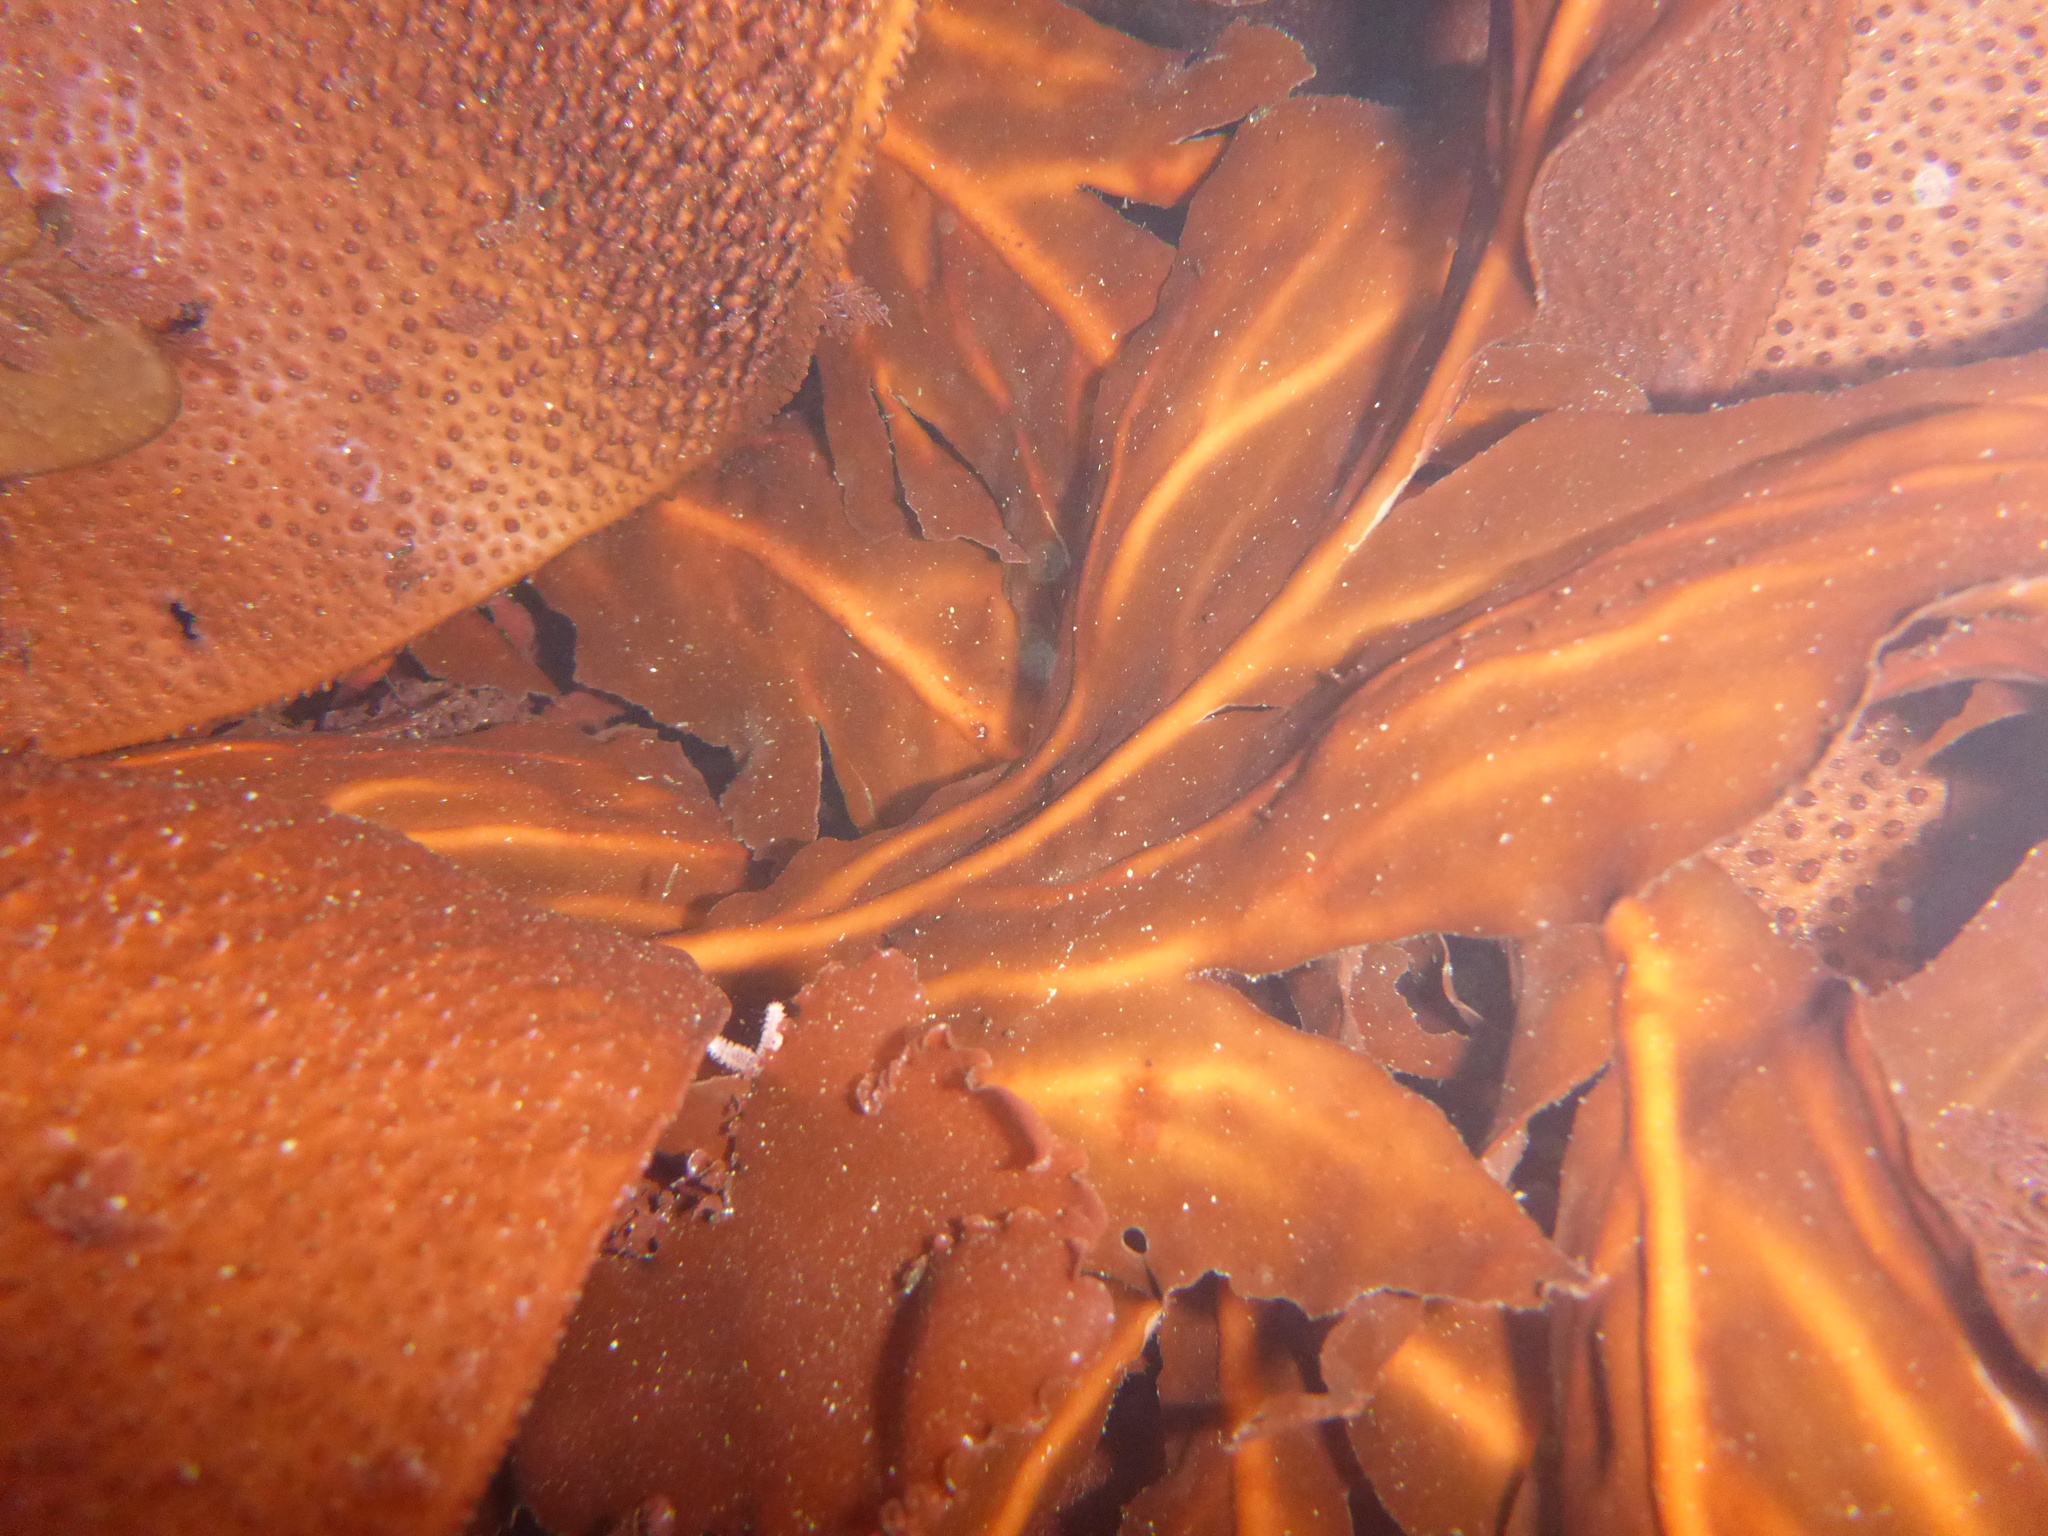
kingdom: Plantae
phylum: Rhodophyta
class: Florideophyceae
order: Gigartinales
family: Kallymeniaceae
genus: Erythrophyllum
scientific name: Erythrophyllum delesserioides
